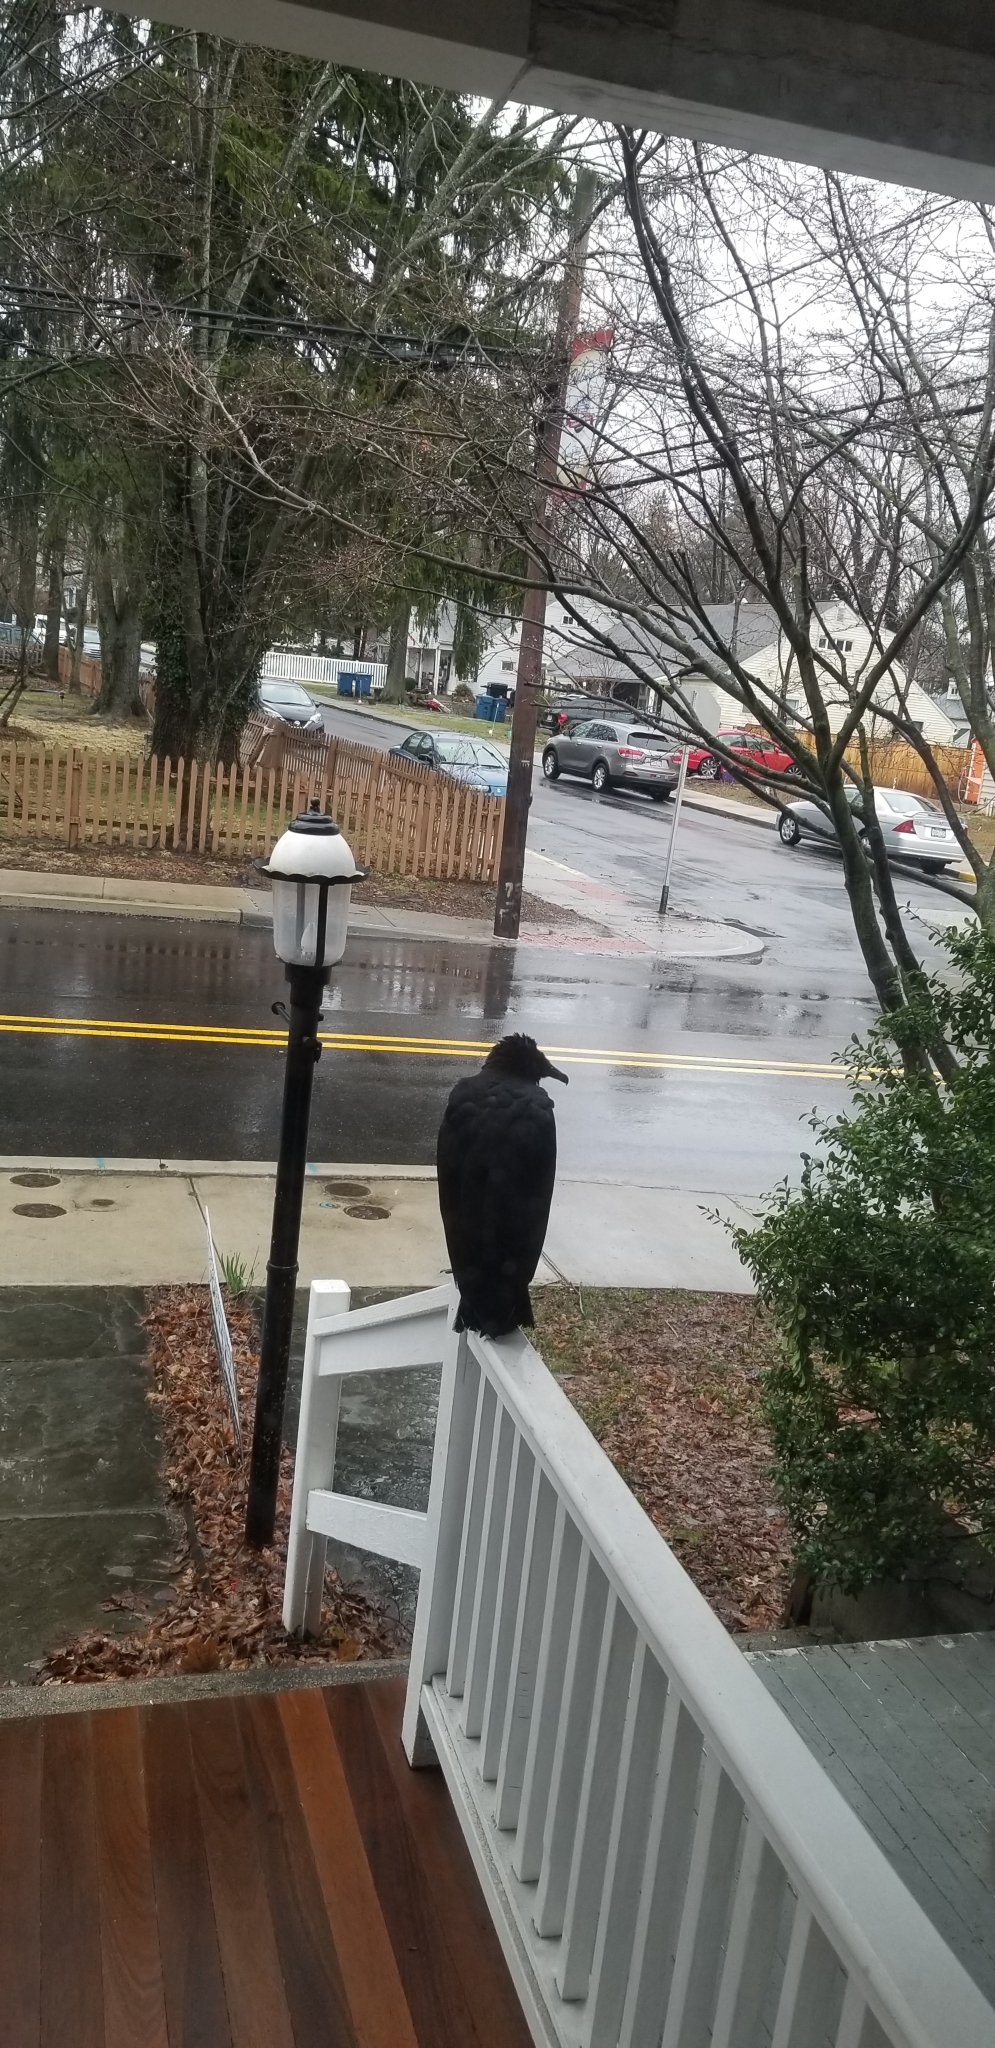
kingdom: Animalia
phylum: Chordata
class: Aves
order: Accipitriformes
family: Cathartidae
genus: Coragyps
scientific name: Coragyps atratus
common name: Black vulture
